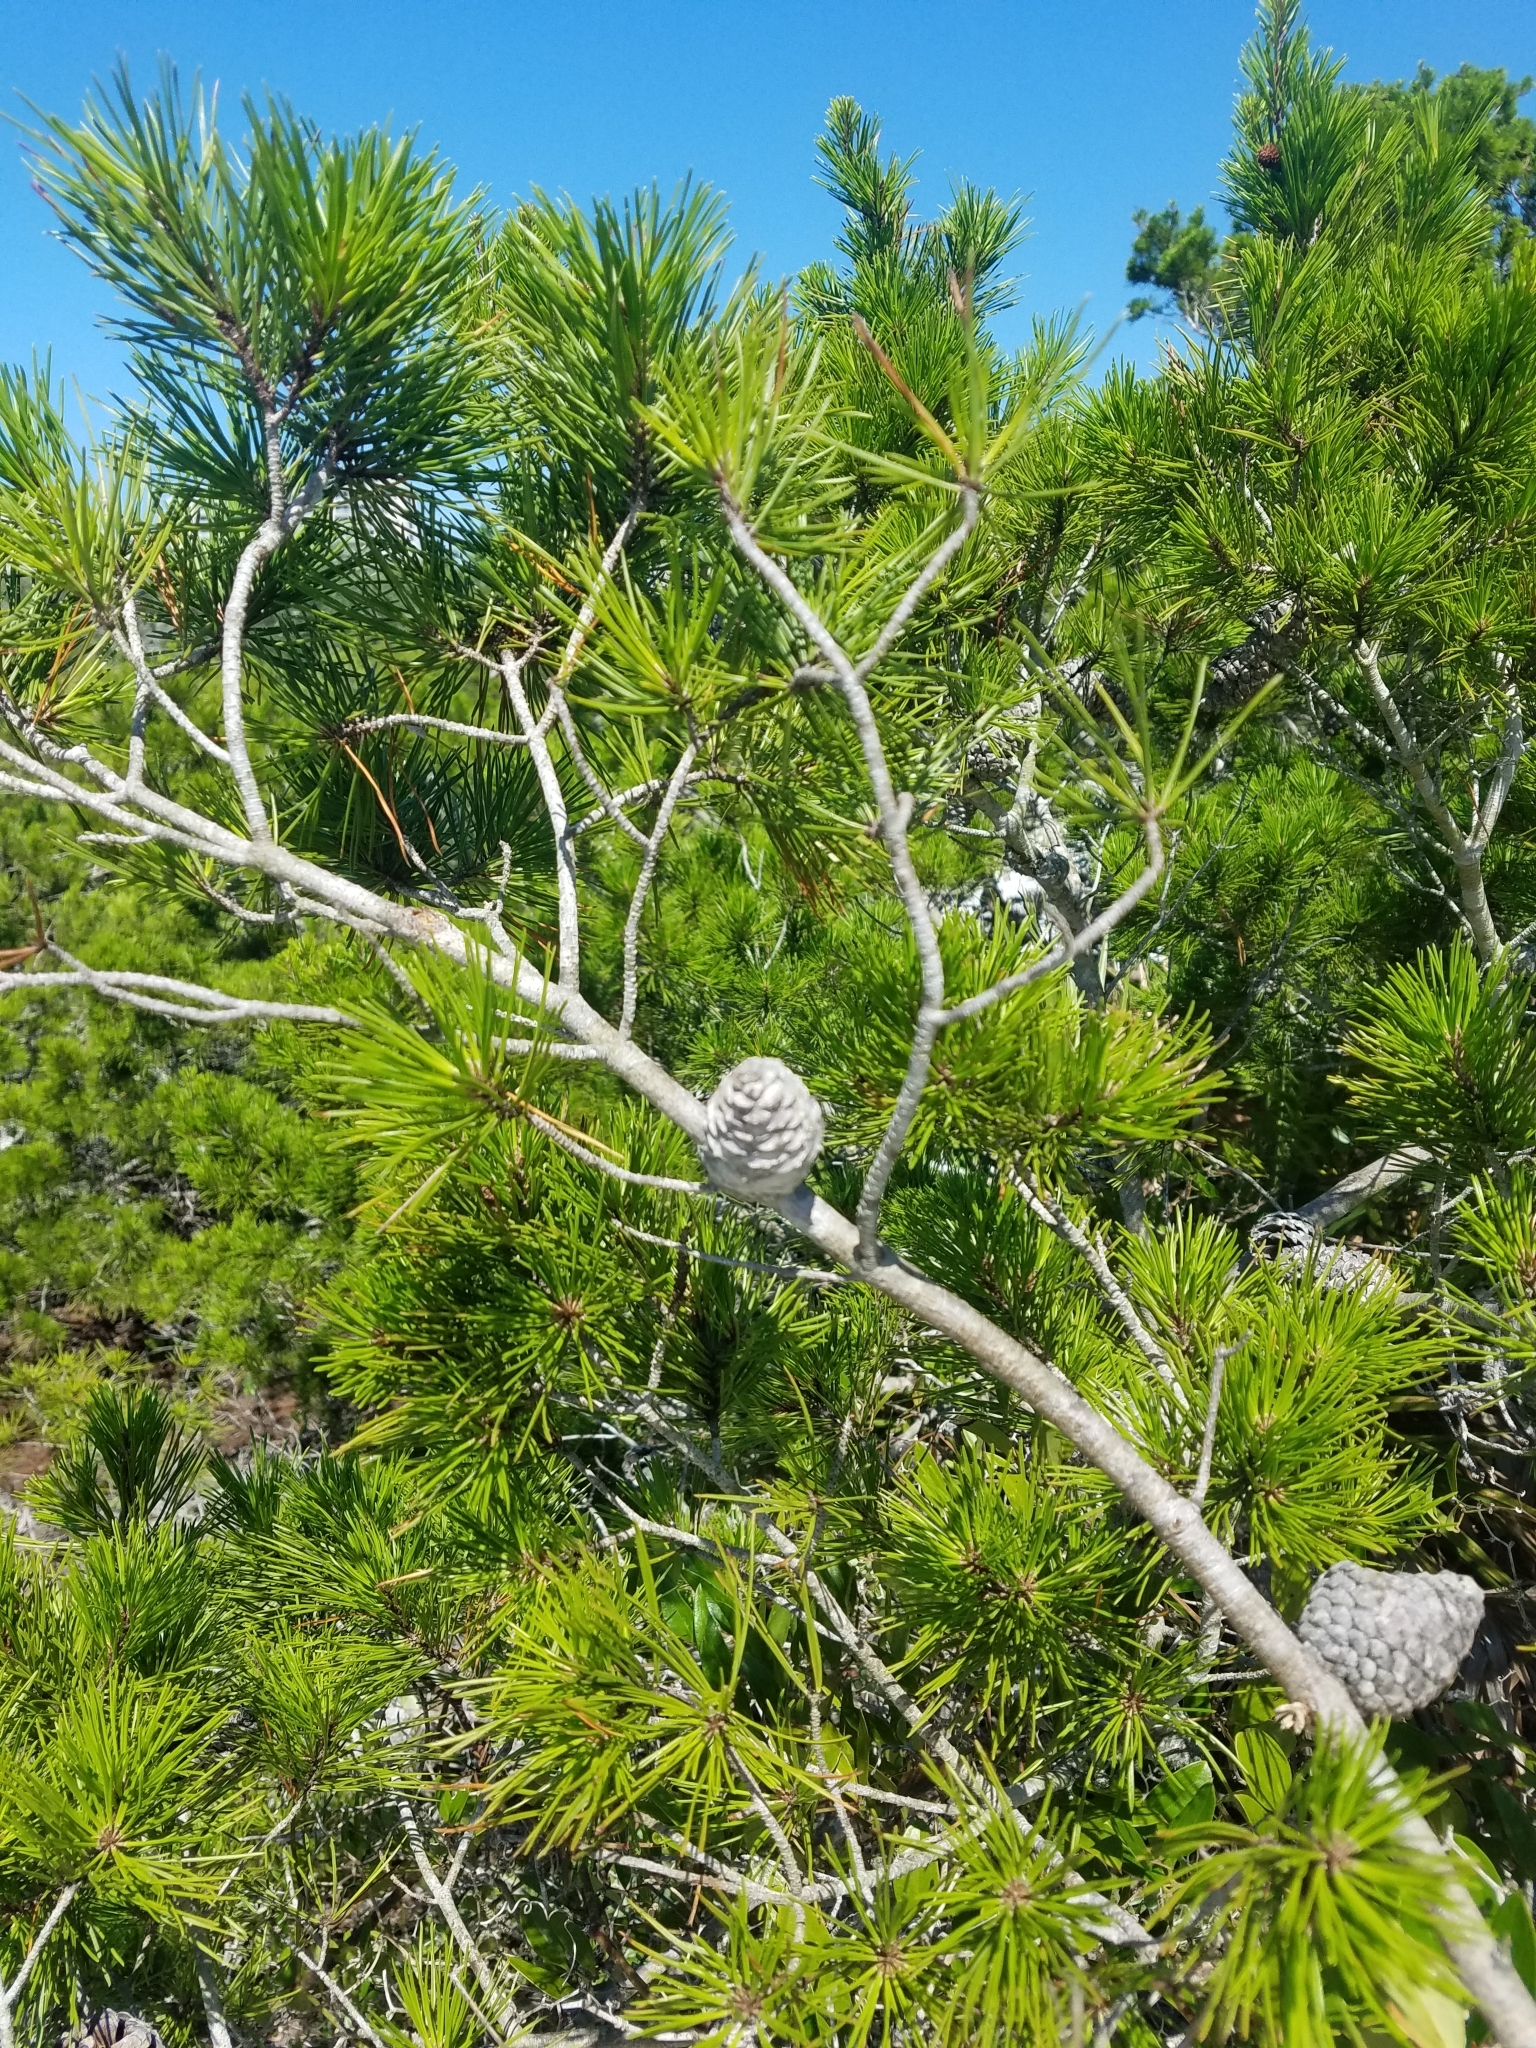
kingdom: Plantae
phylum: Tracheophyta
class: Pinopsida
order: Pinales
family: Pinaceae
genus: Pinus
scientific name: Pinus clausa
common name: Sand pine
